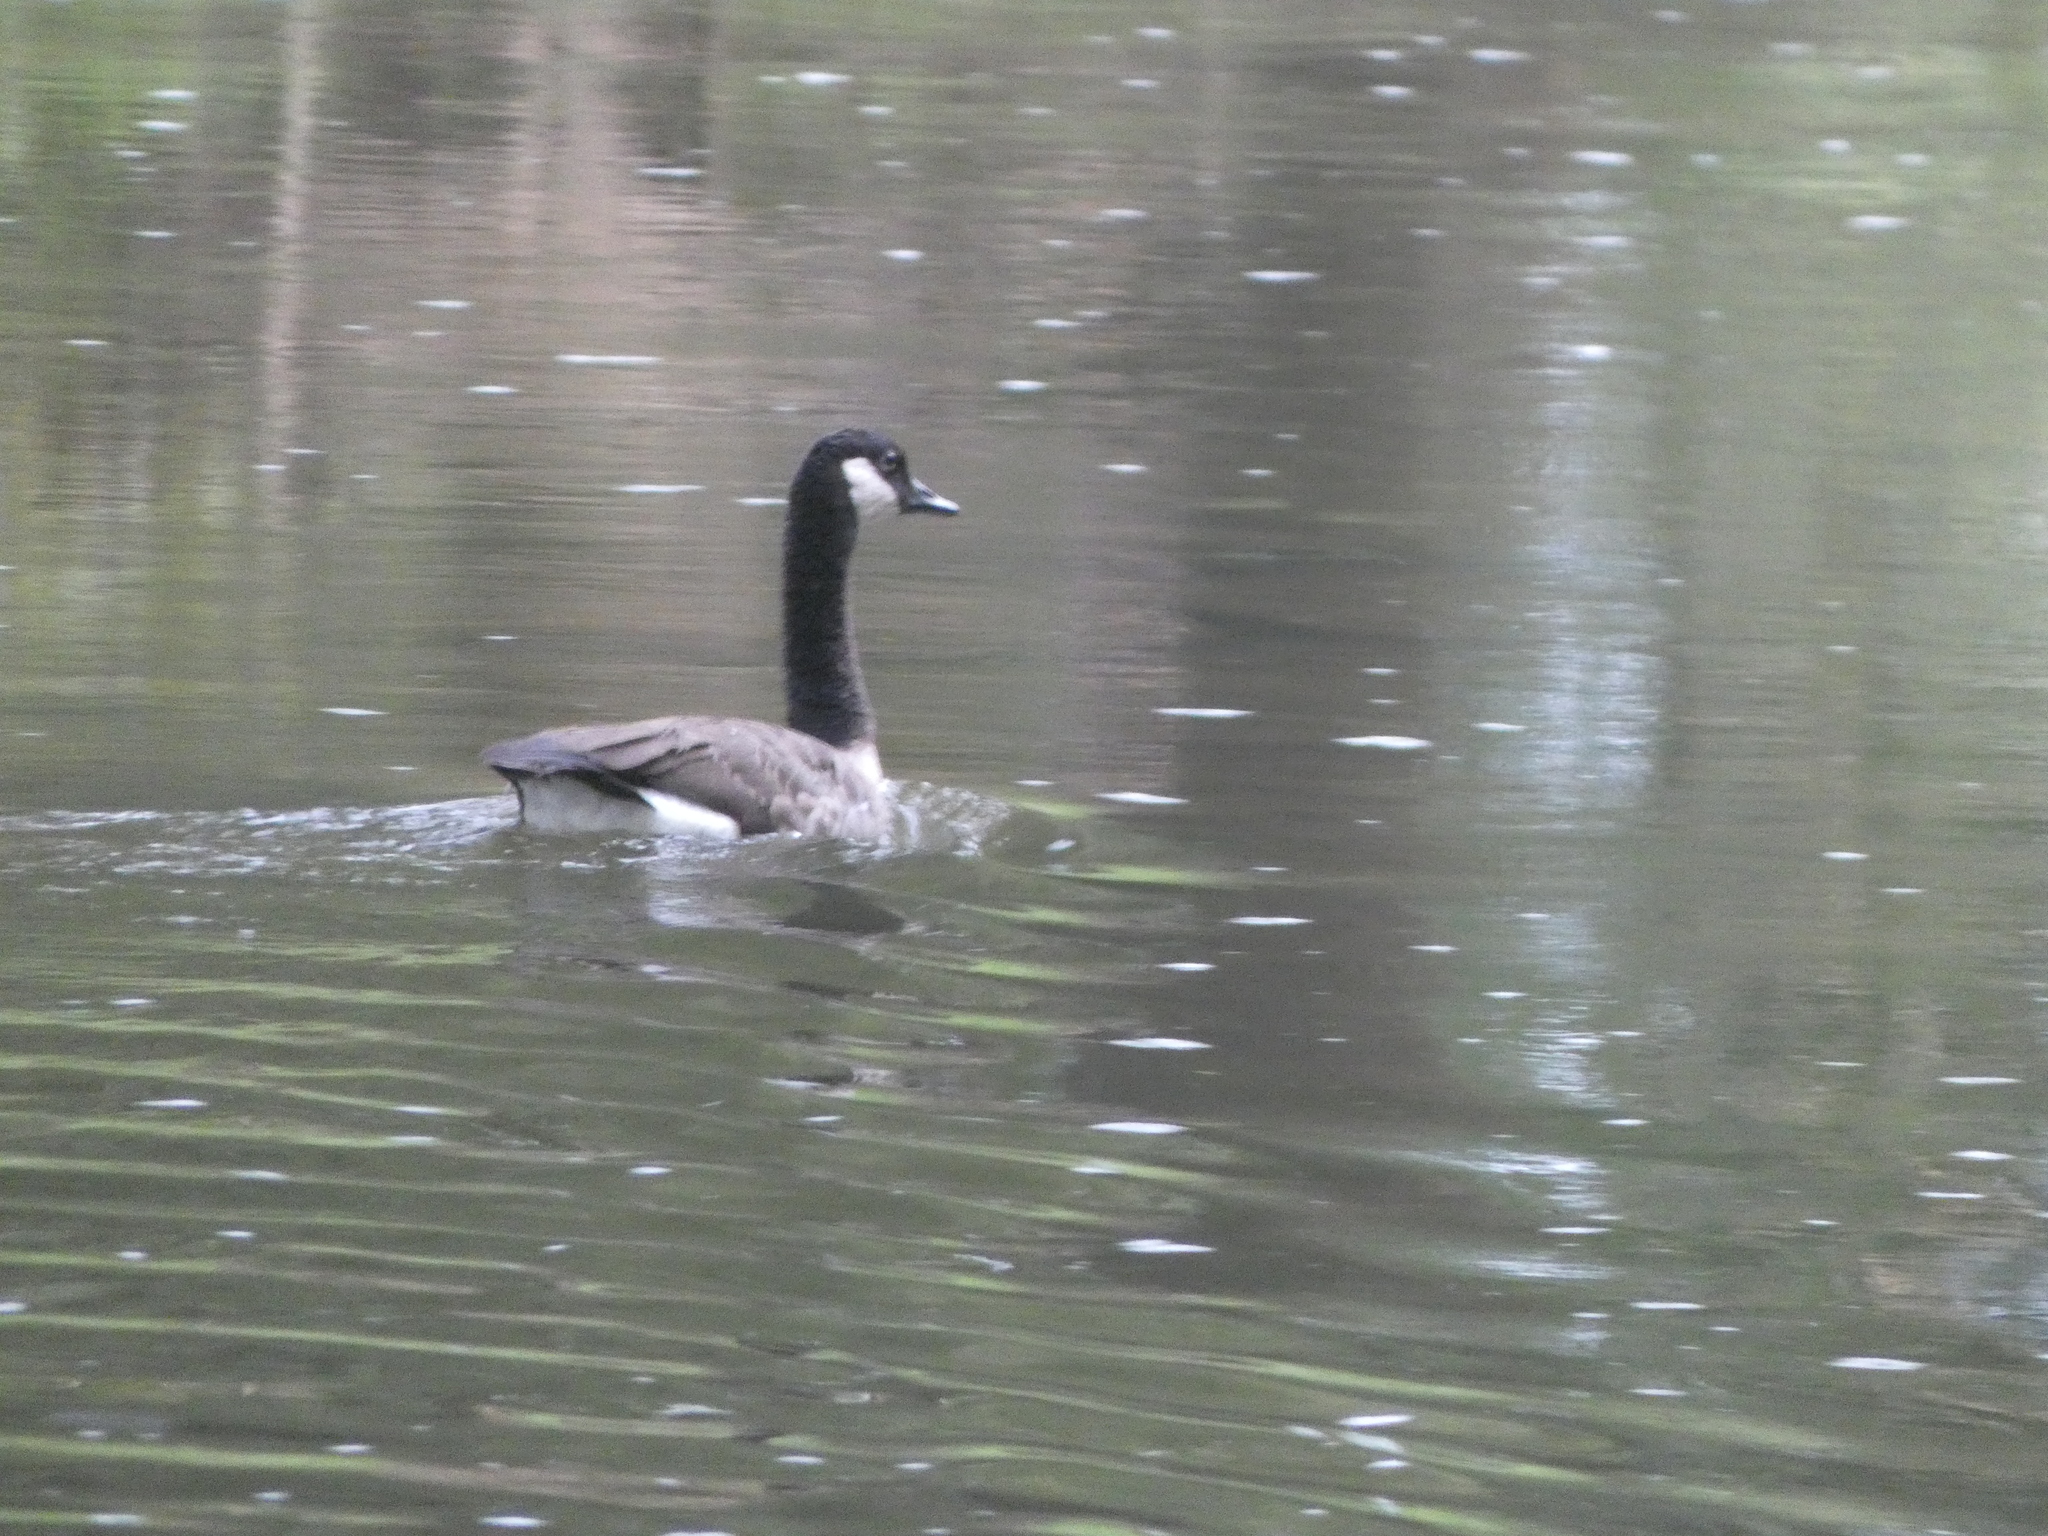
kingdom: Animalia
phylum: Chordata
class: Aves
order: Anseriformes
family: Anatidae
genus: Branta
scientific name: Branta canadensis
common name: Canada goose
